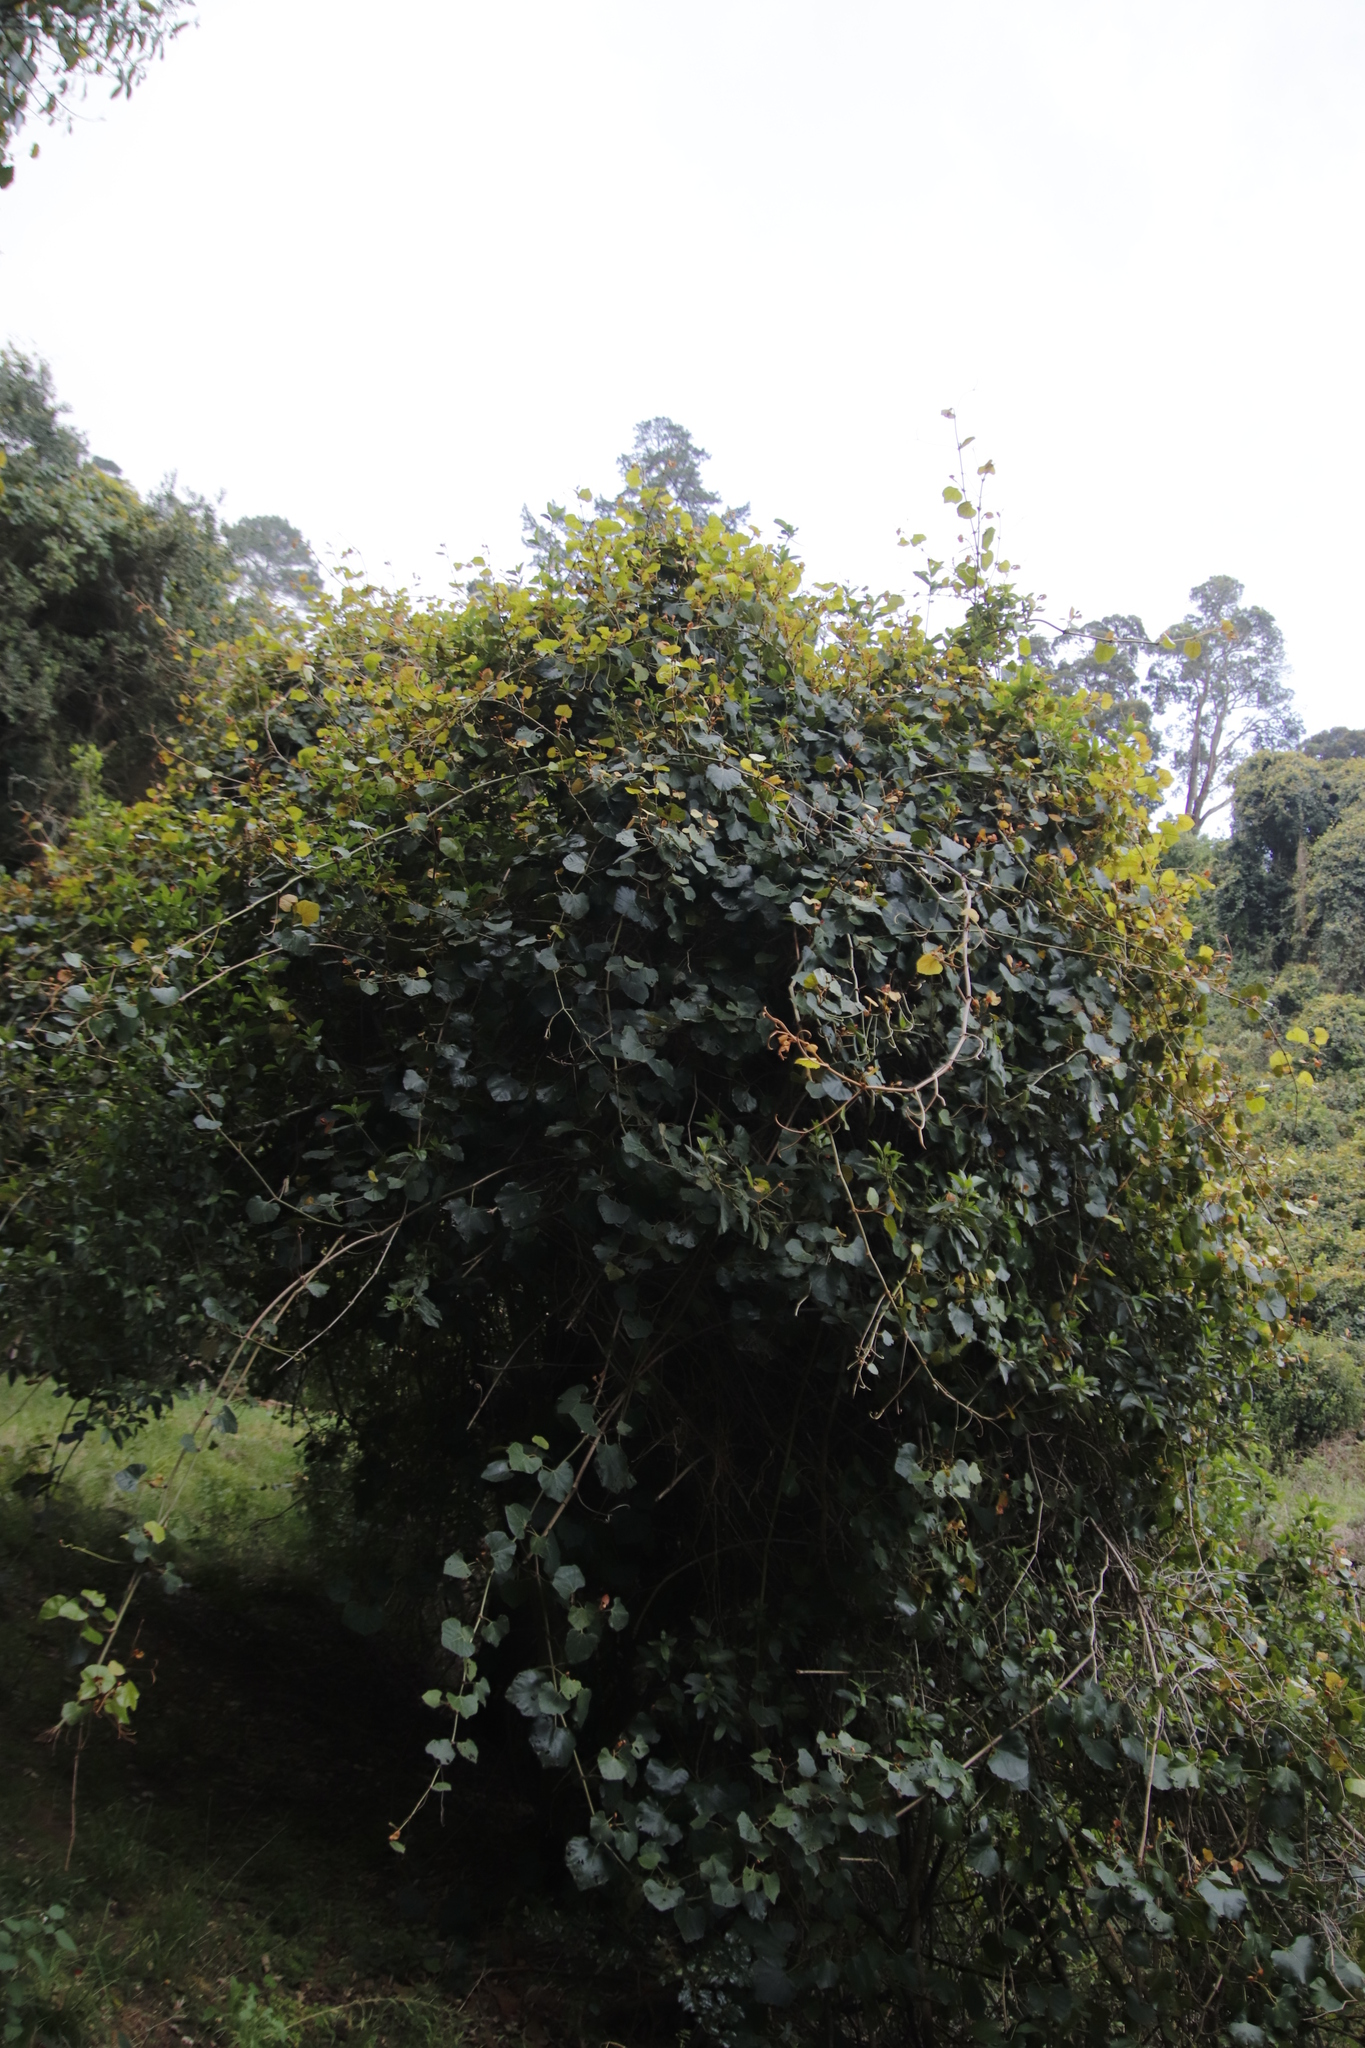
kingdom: Plantae
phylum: Tracheophyta
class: Magnoliopsida
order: Vitales
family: Vitaceae
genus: Rhoicissus
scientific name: Rhoicissus tomentosa
